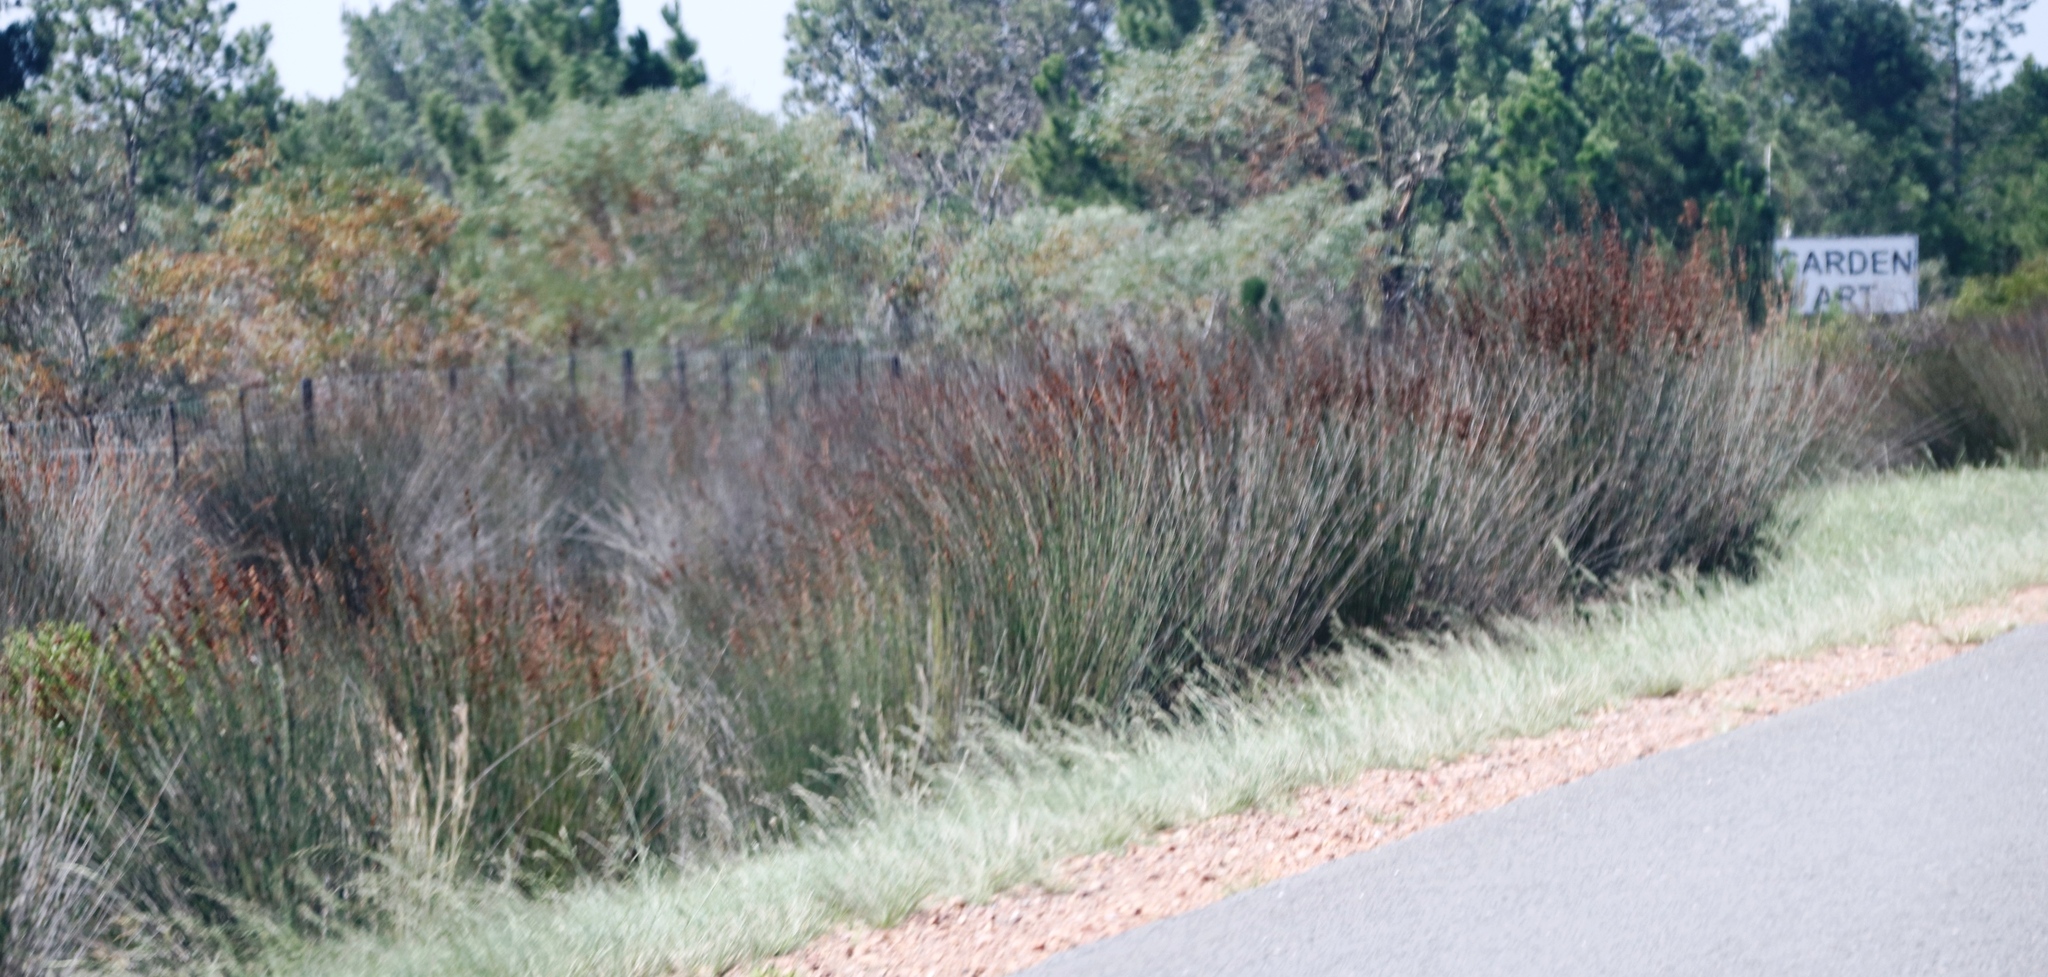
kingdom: Plantae
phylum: Tracheophyta
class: Liliopsida
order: Poales
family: Restionaceae
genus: Thamnochortus
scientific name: Thamnochortus insignis
